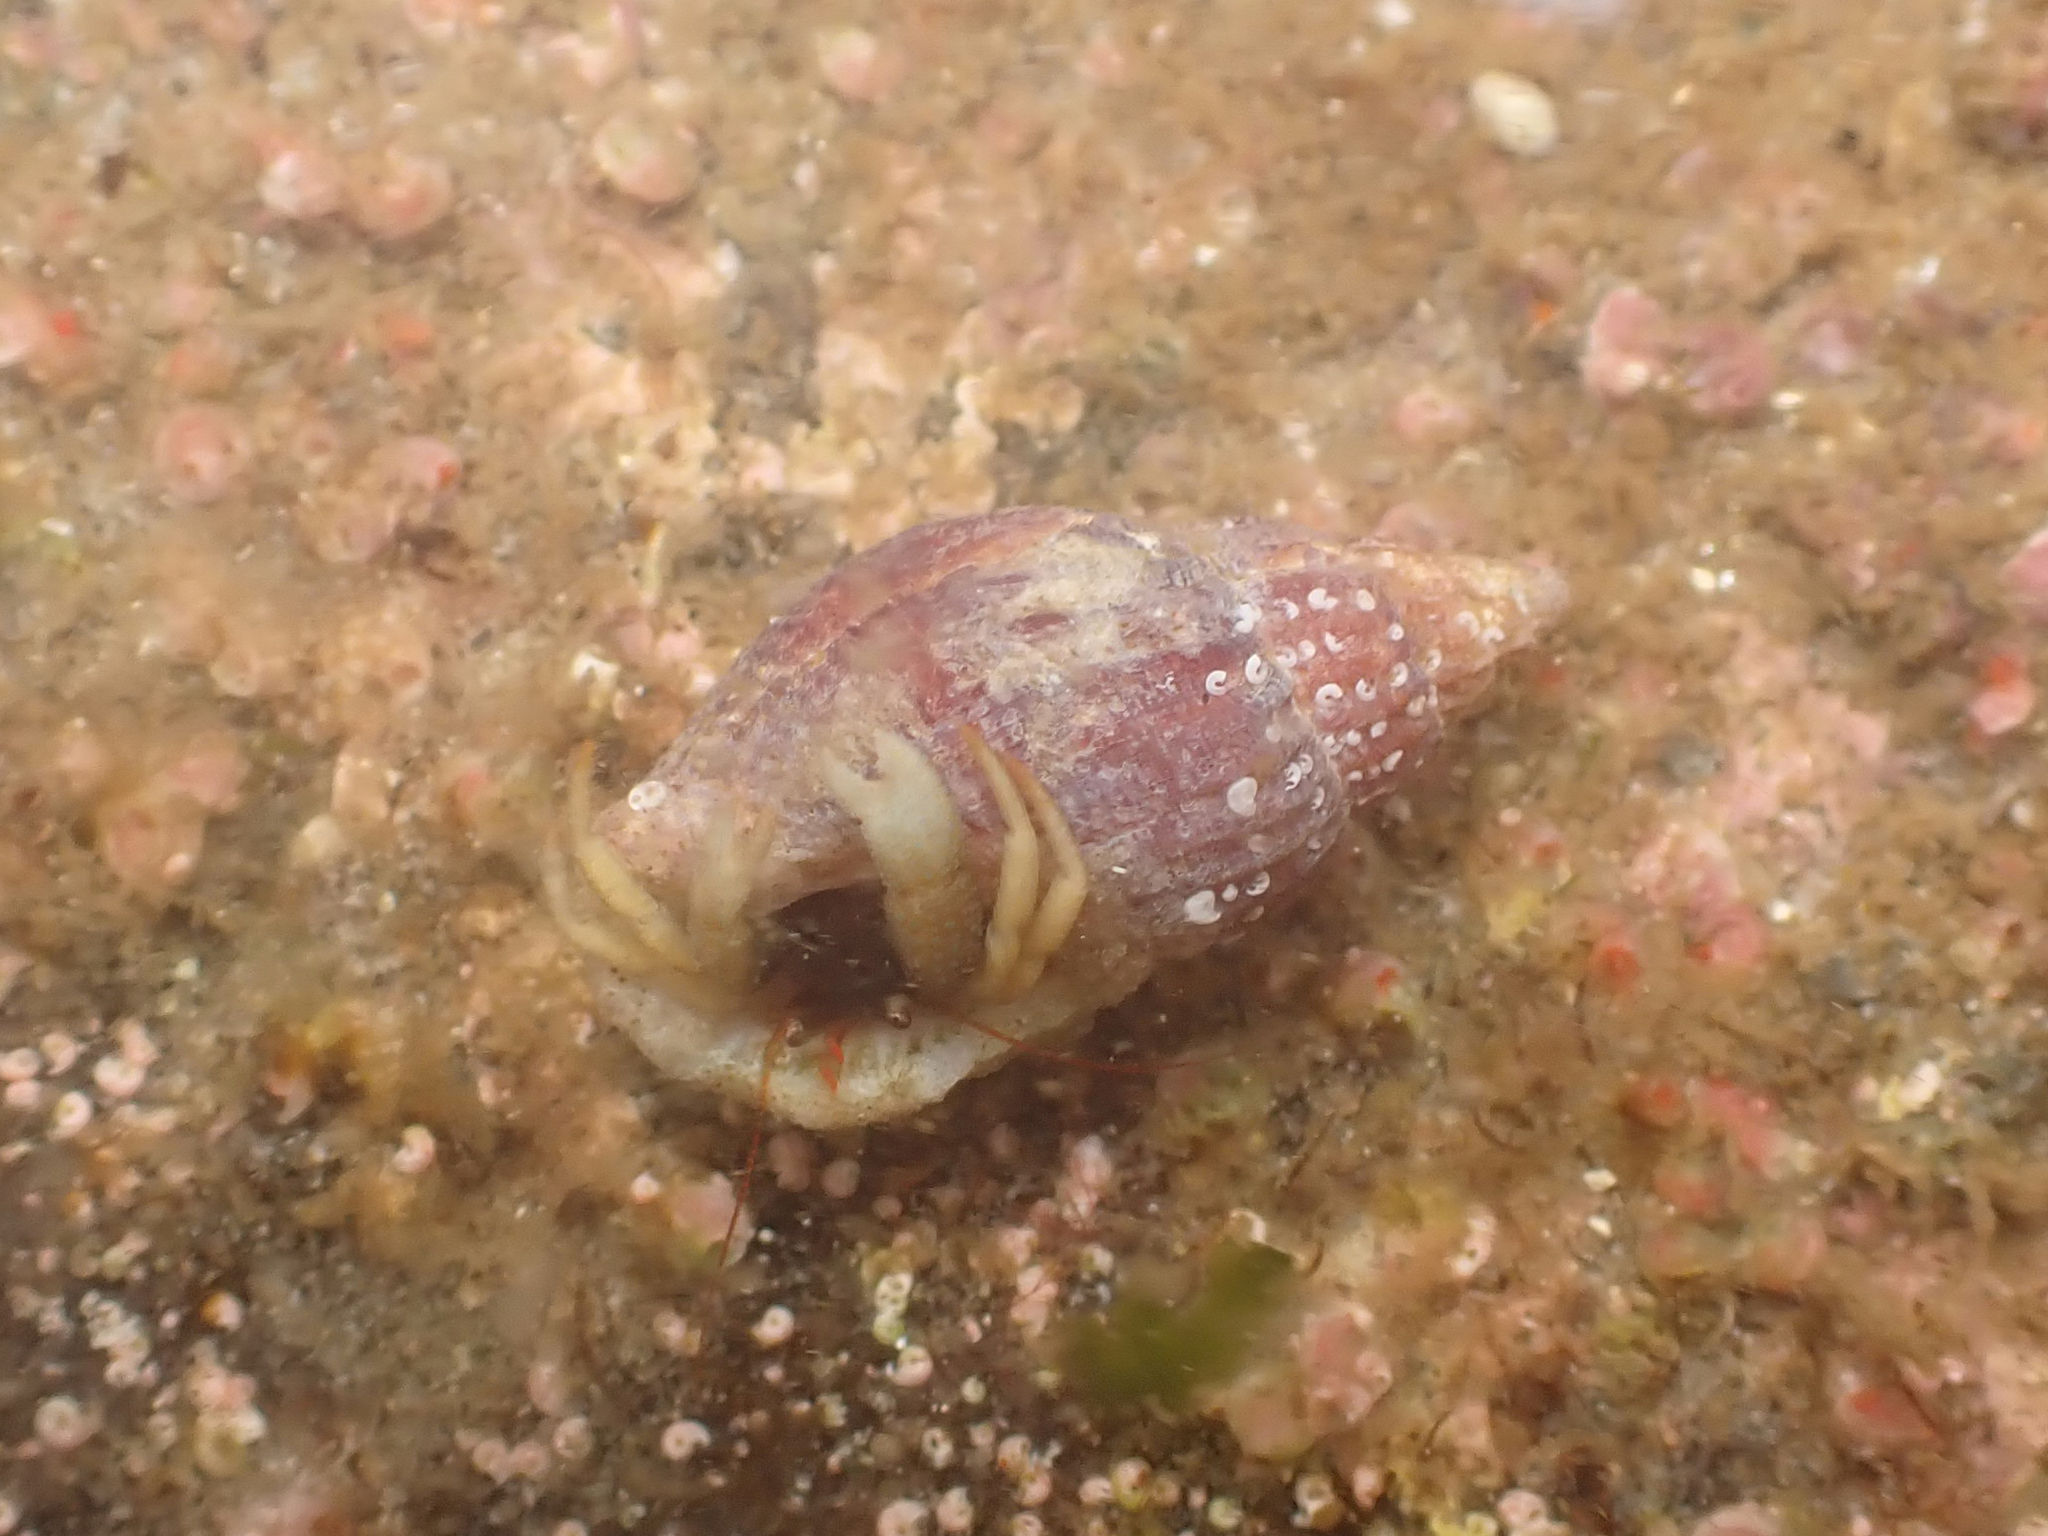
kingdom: Animalia
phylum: Arthropoda
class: Malacostraca
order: Decapoda
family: Paguridae
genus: Pagurus
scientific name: Pagurus granosimanus
